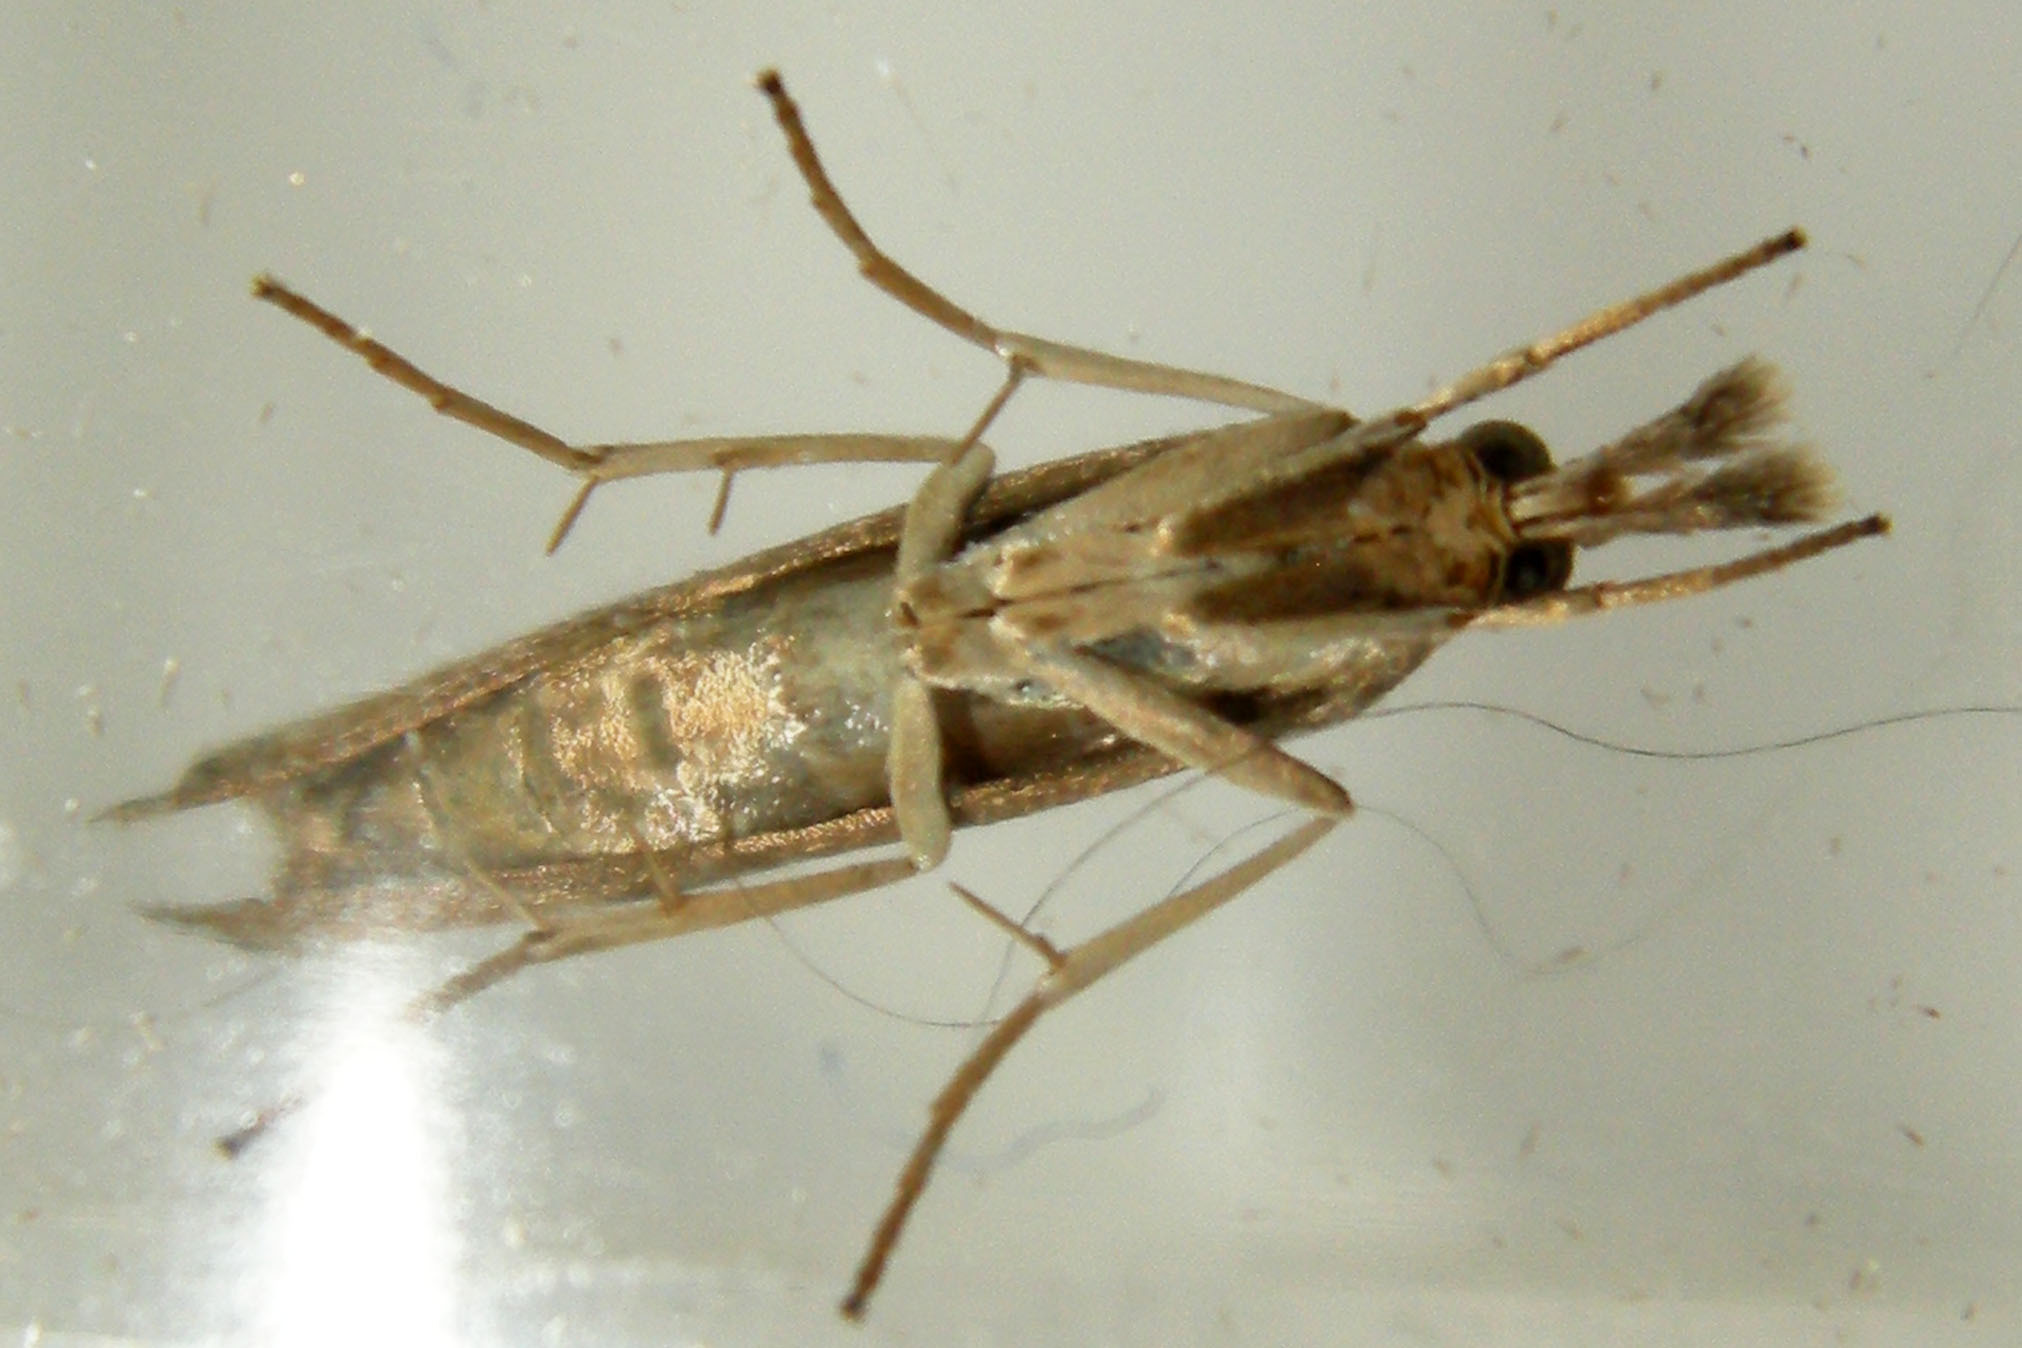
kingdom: Animalia
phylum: Arthropoda
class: Insecta
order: Lepidoptera
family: Crambidae
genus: Parapediasia
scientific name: Parapediasia teterellus
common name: Bluegrass webworm moth
